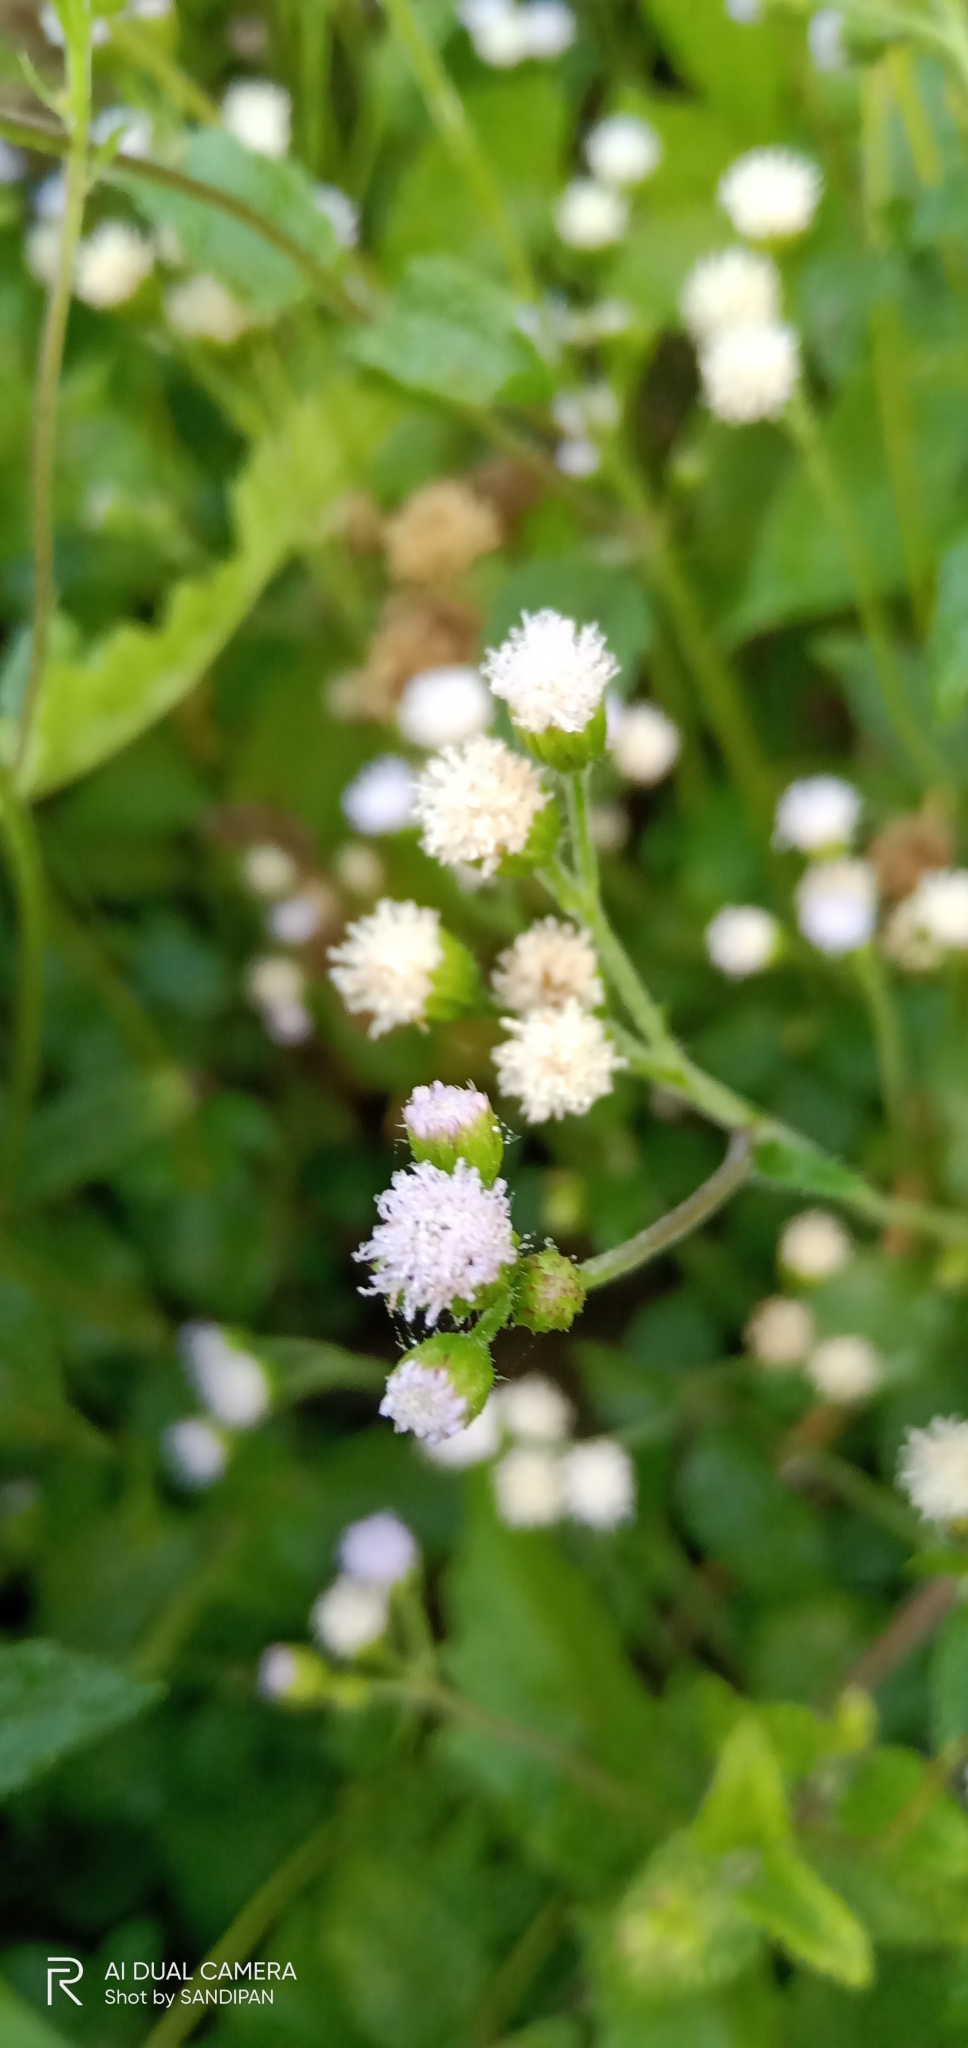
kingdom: Plantae
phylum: Tracheophyta
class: Magnoliopsida
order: Asterales
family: Asteraceae
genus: Ageratum
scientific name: Ageratum conyzoides
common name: Tropical whiteweed
